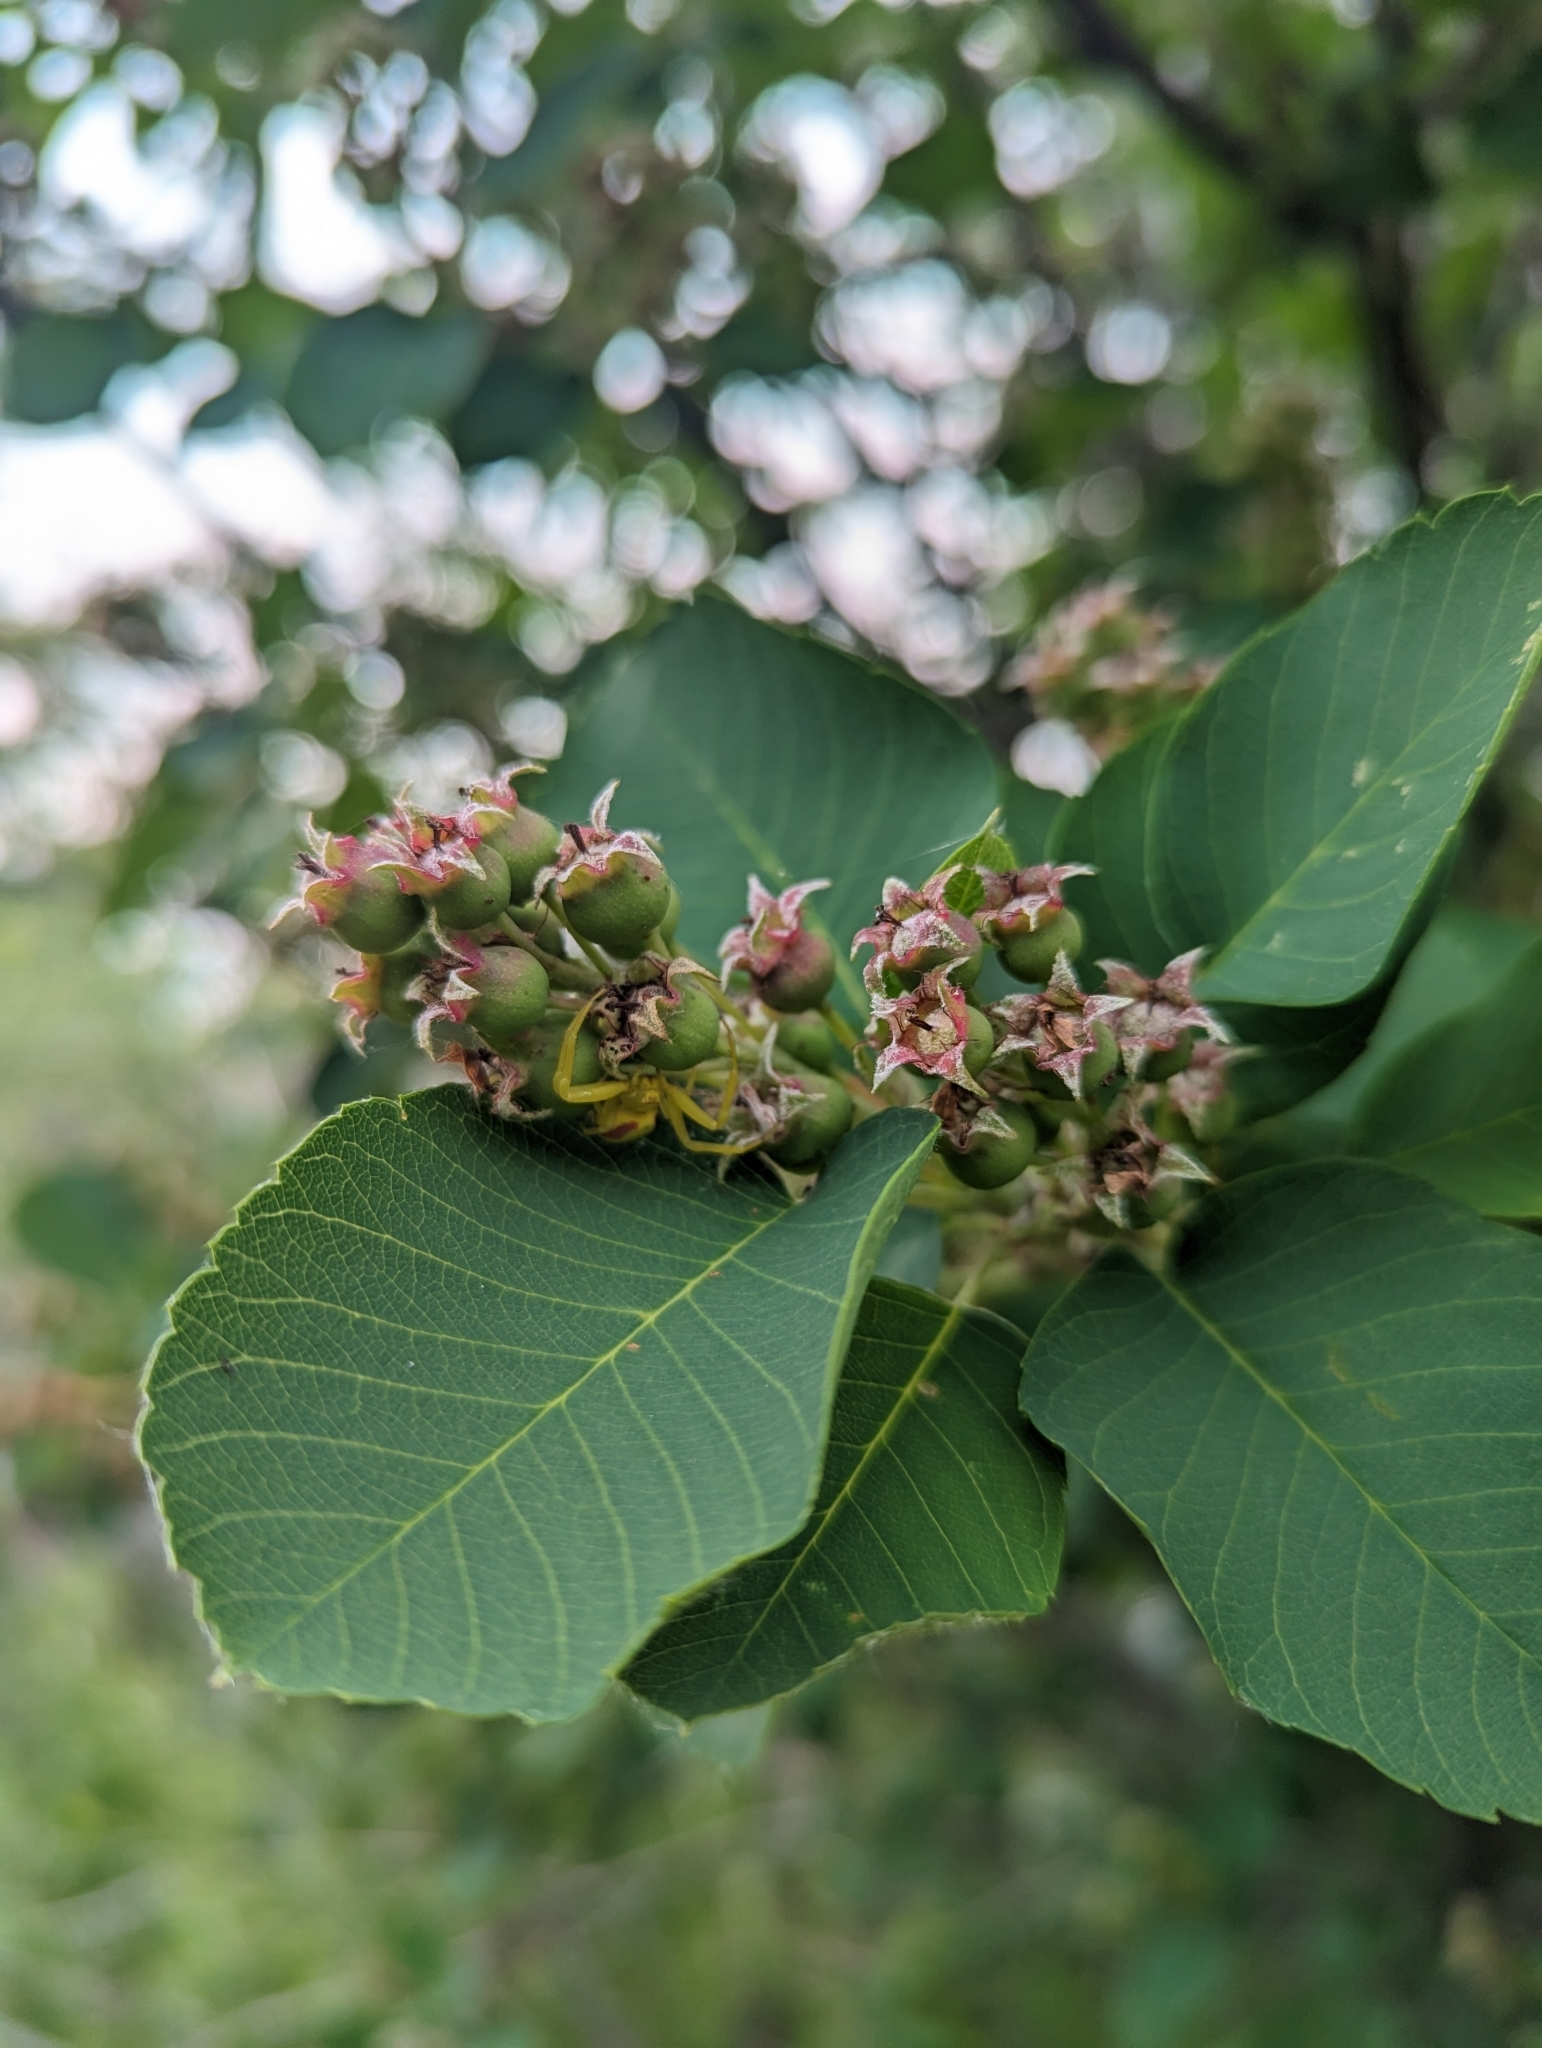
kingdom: Plantae
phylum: Tracheophyta
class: Magnoliopsida
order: Rosales
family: Rosaceae
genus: Amelanchier
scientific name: Amelanchier alnifolia
